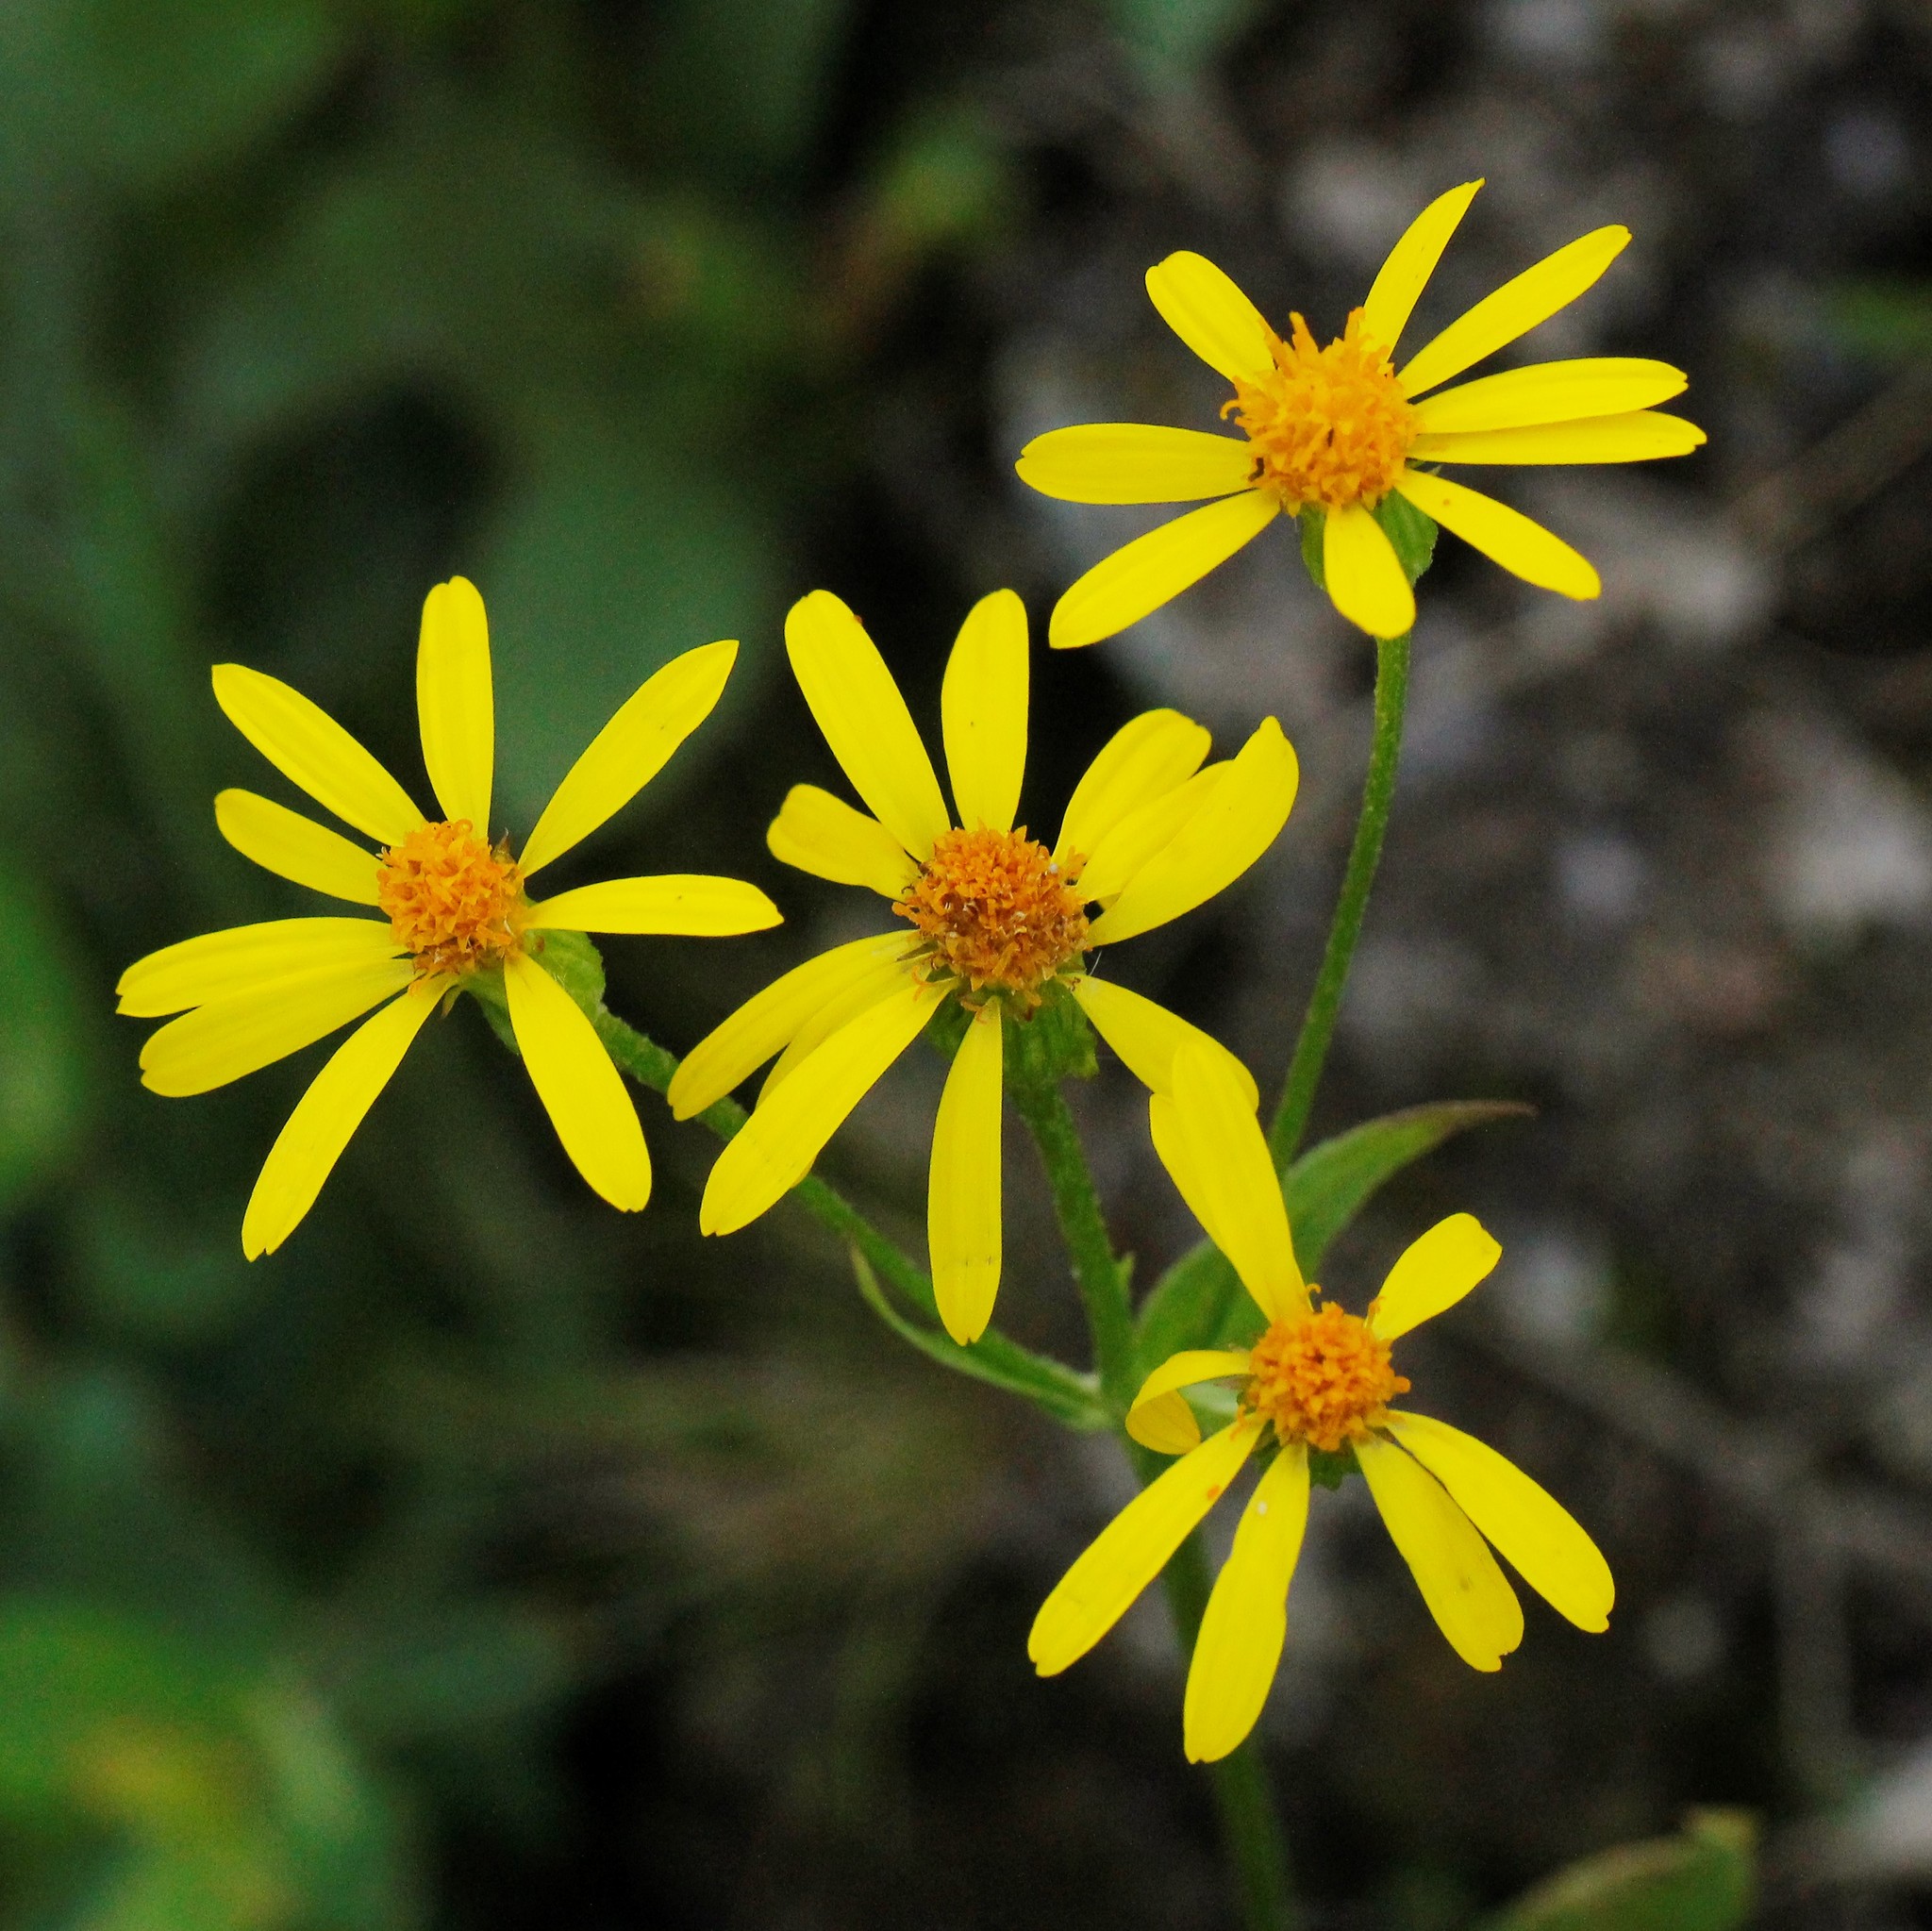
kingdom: Plantae
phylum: Tracheophyta
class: Magnoliopsida
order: Asterales
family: Asteraceae
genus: Tephroseris
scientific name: Tephroseris integrifolia
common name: Field fleawort
